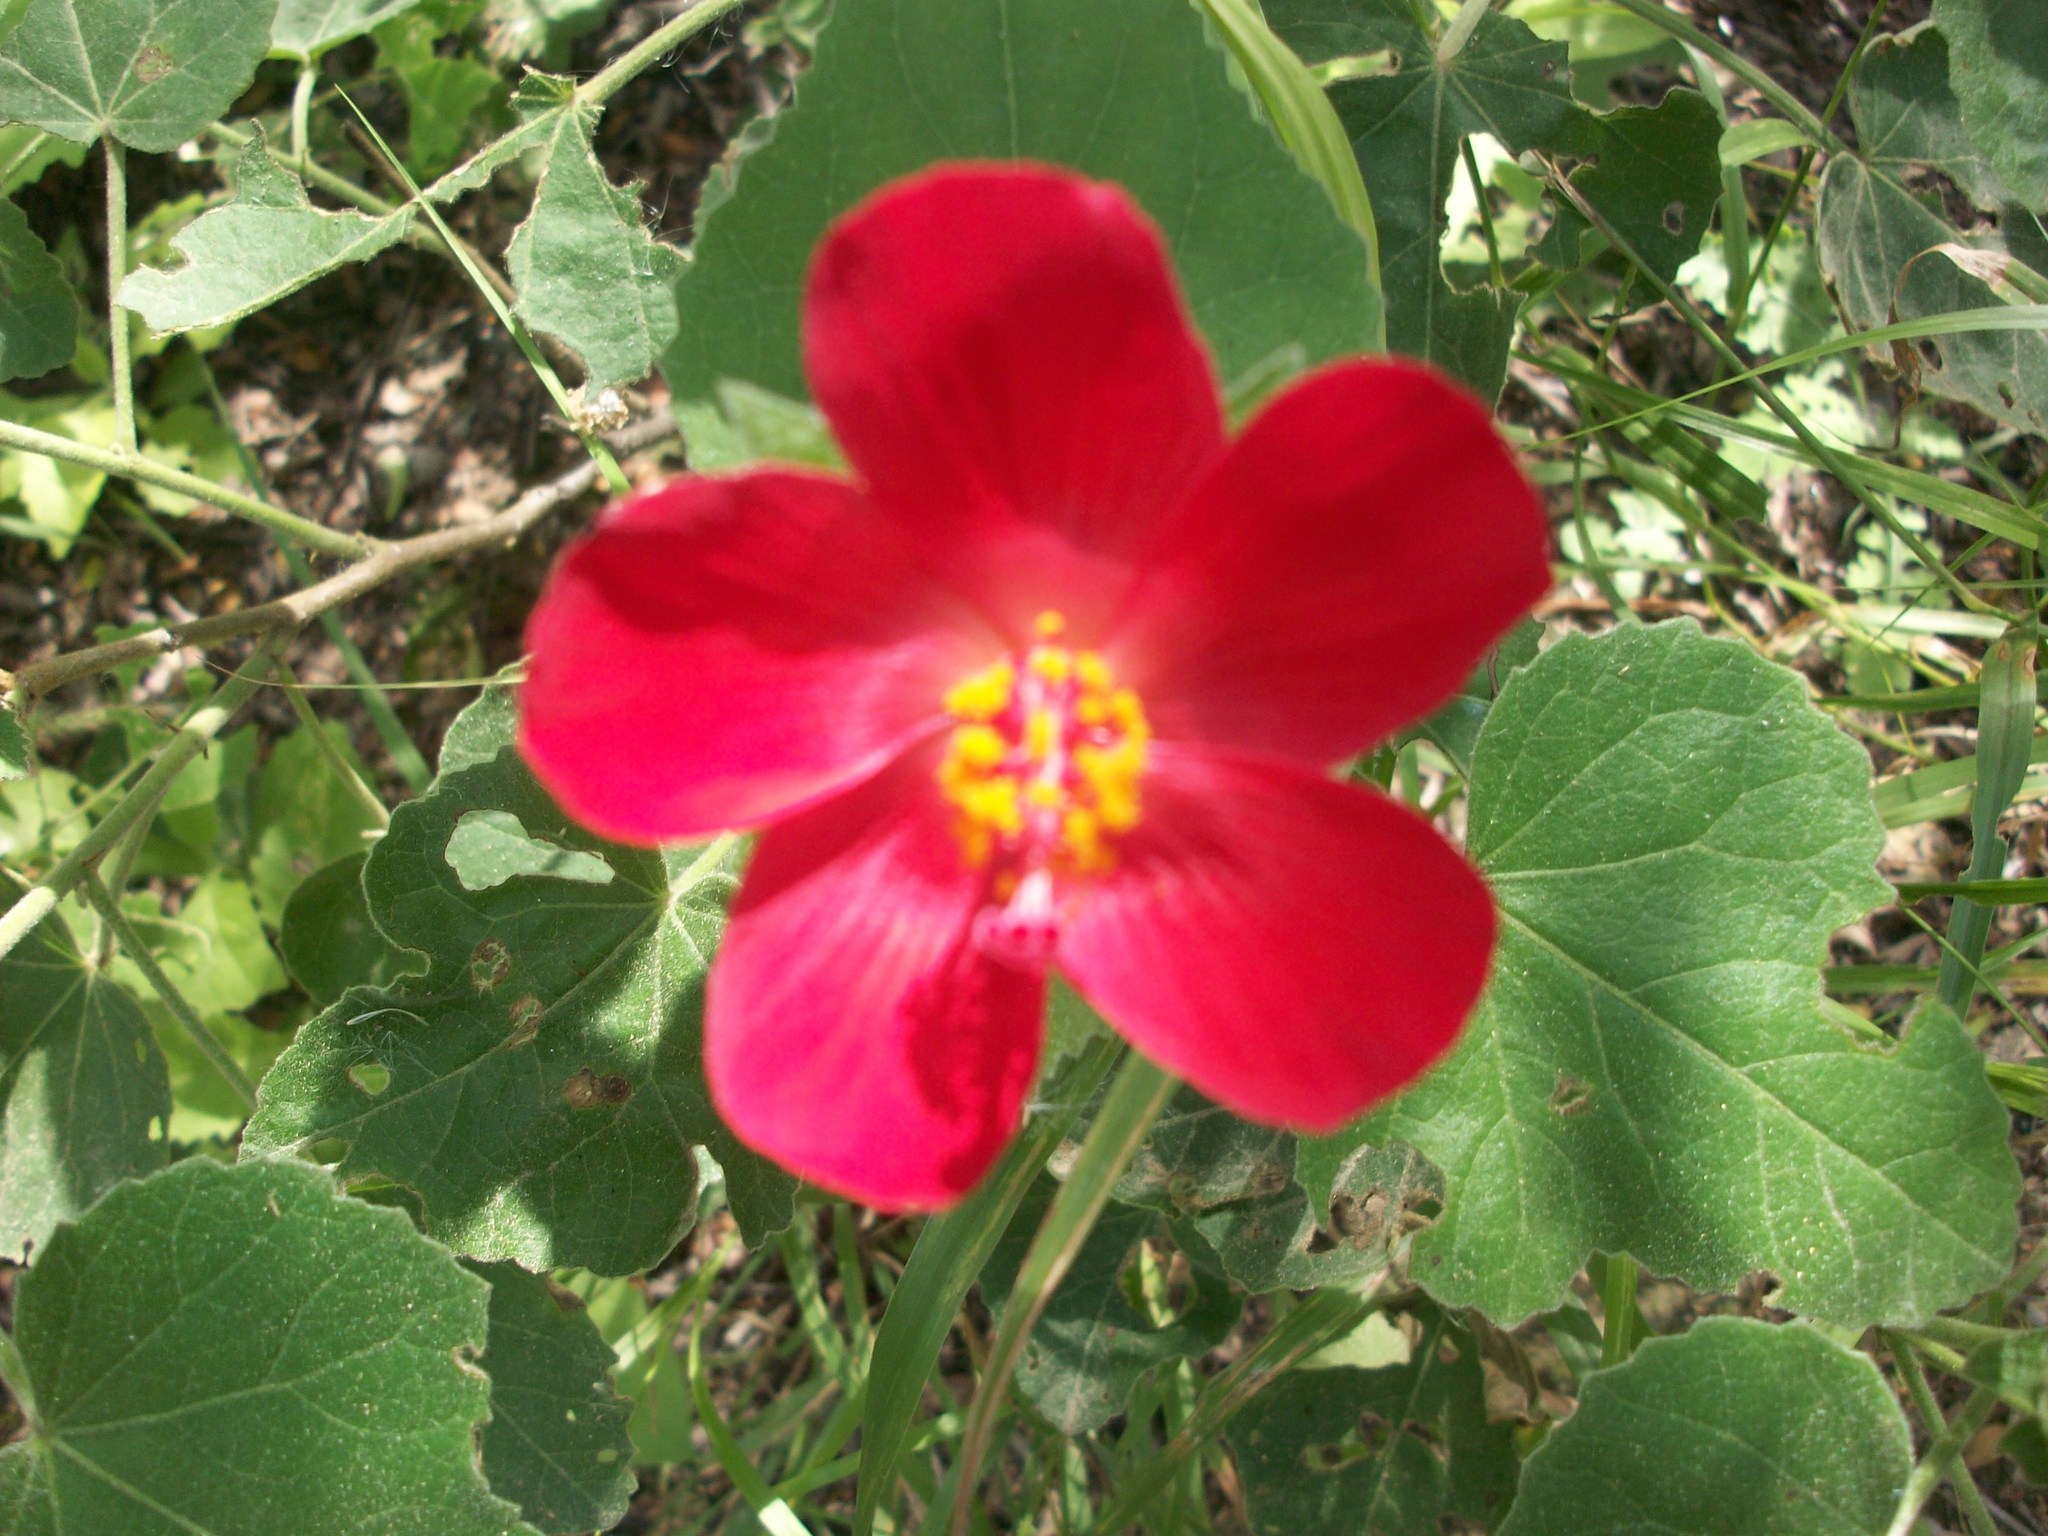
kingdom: Plantae
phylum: Tracheophyta
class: Magnoliopsida
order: Malvales
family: Malvaceae
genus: Hibiscus
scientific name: Hibiscus martianus
